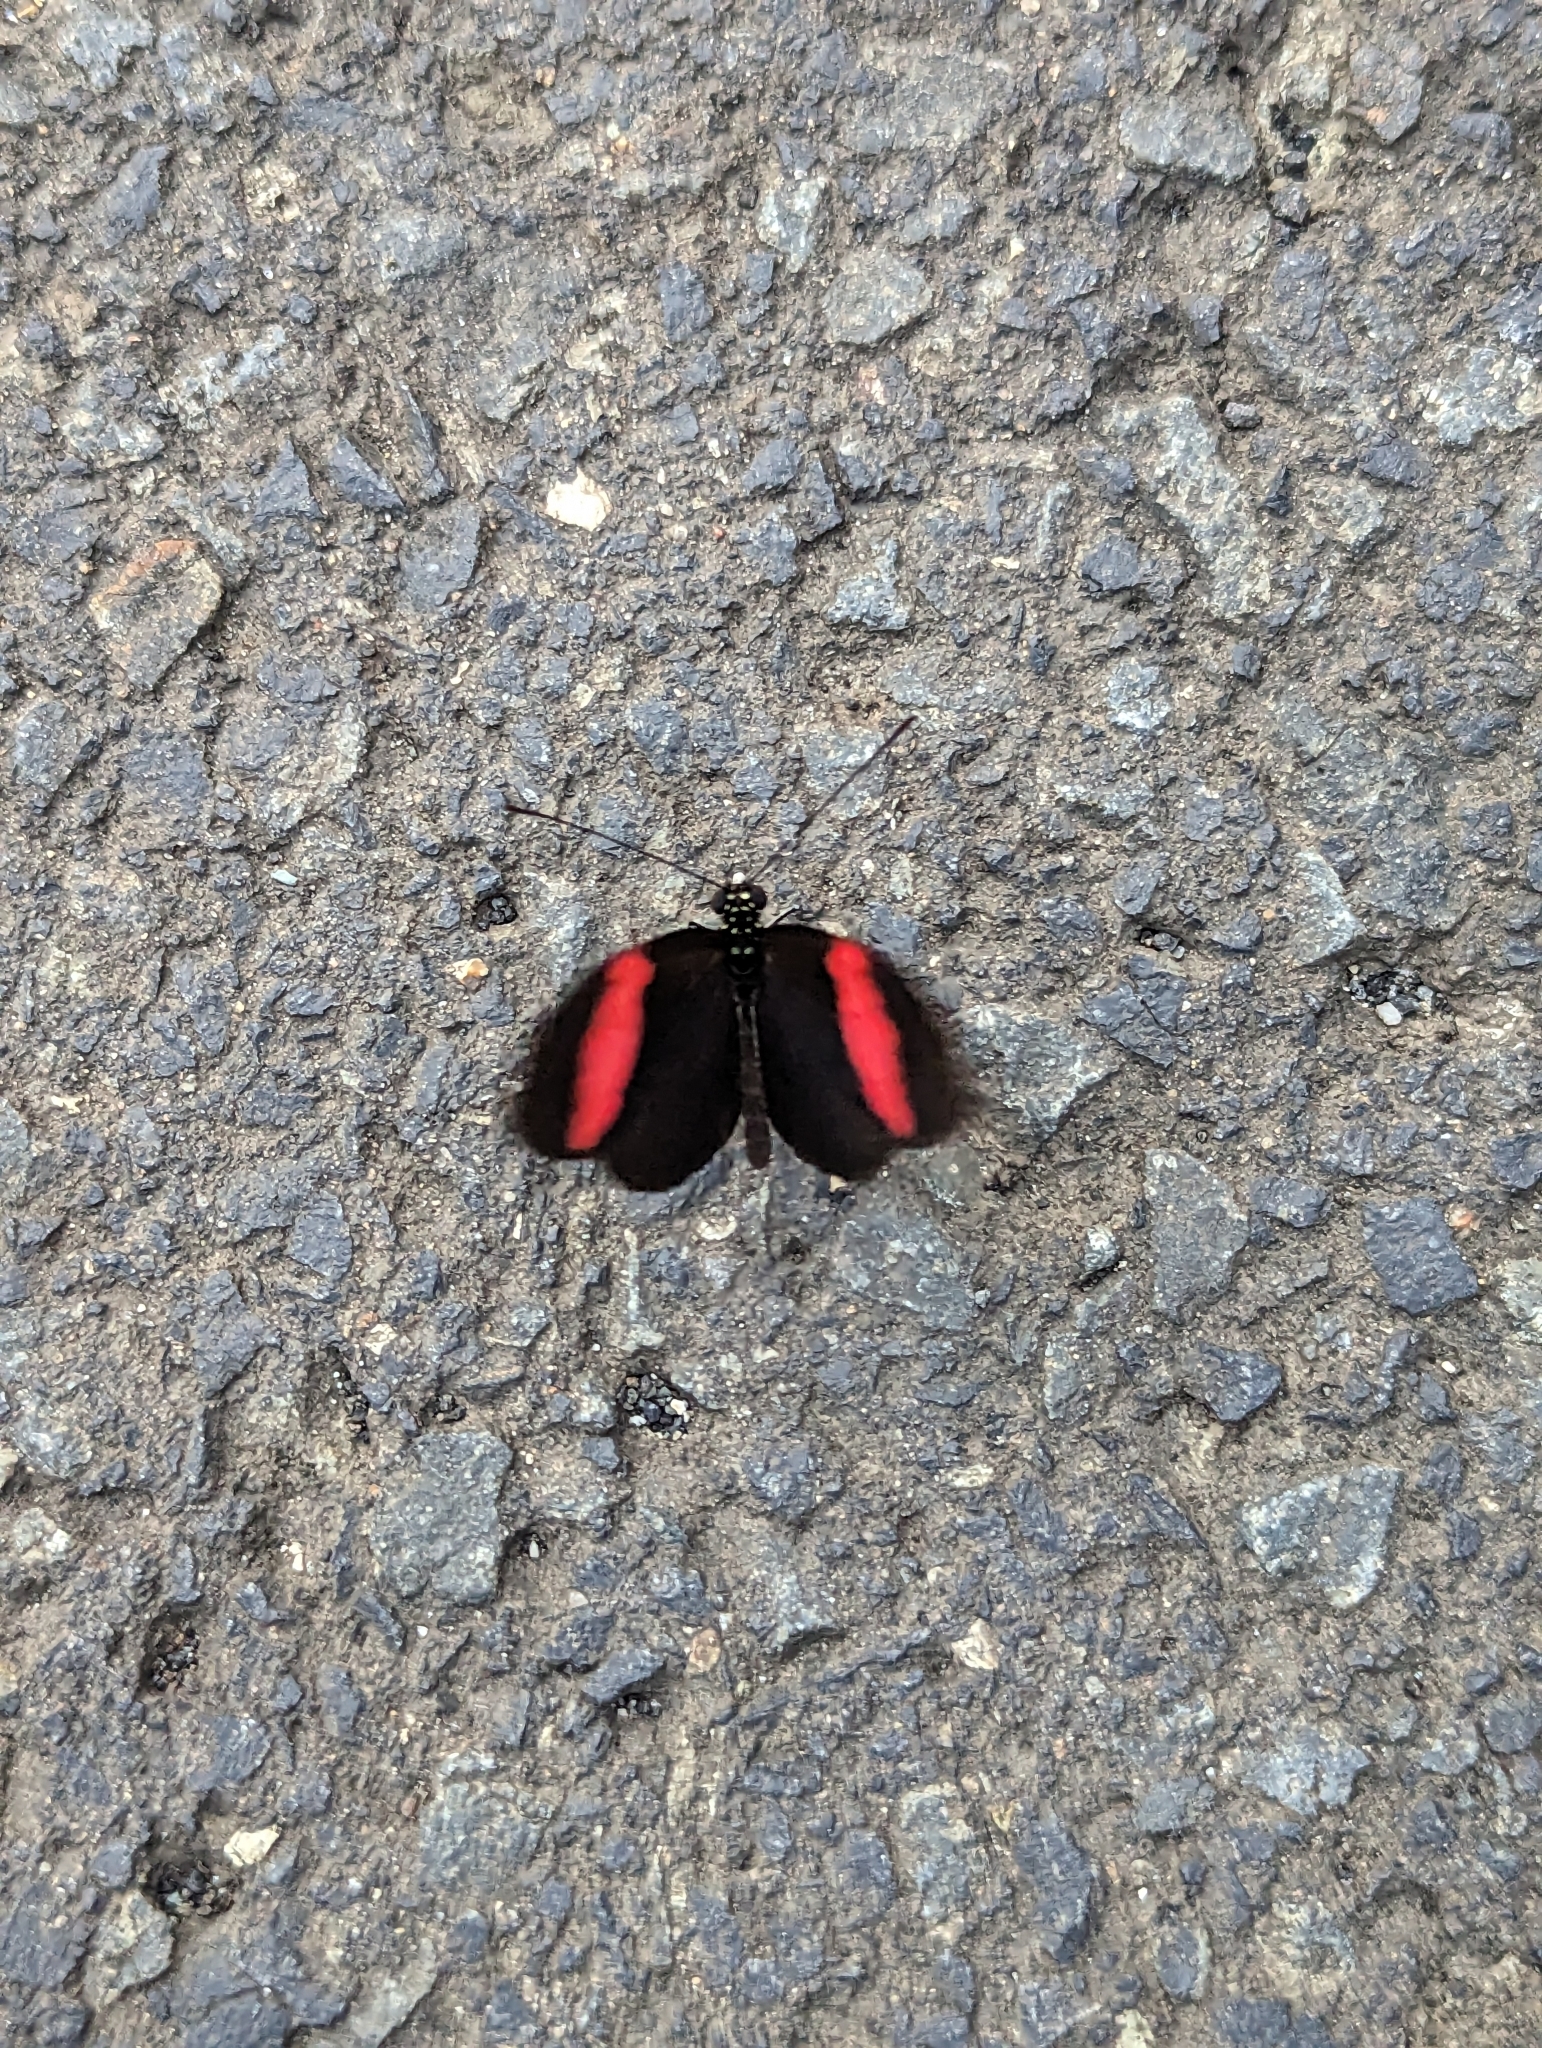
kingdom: Animalia
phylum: Arthropoda
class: Insecta
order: Lepidoptera
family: Nymphalidae
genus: Heliconius
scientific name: Heliconius erato
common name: Common patch longwing
